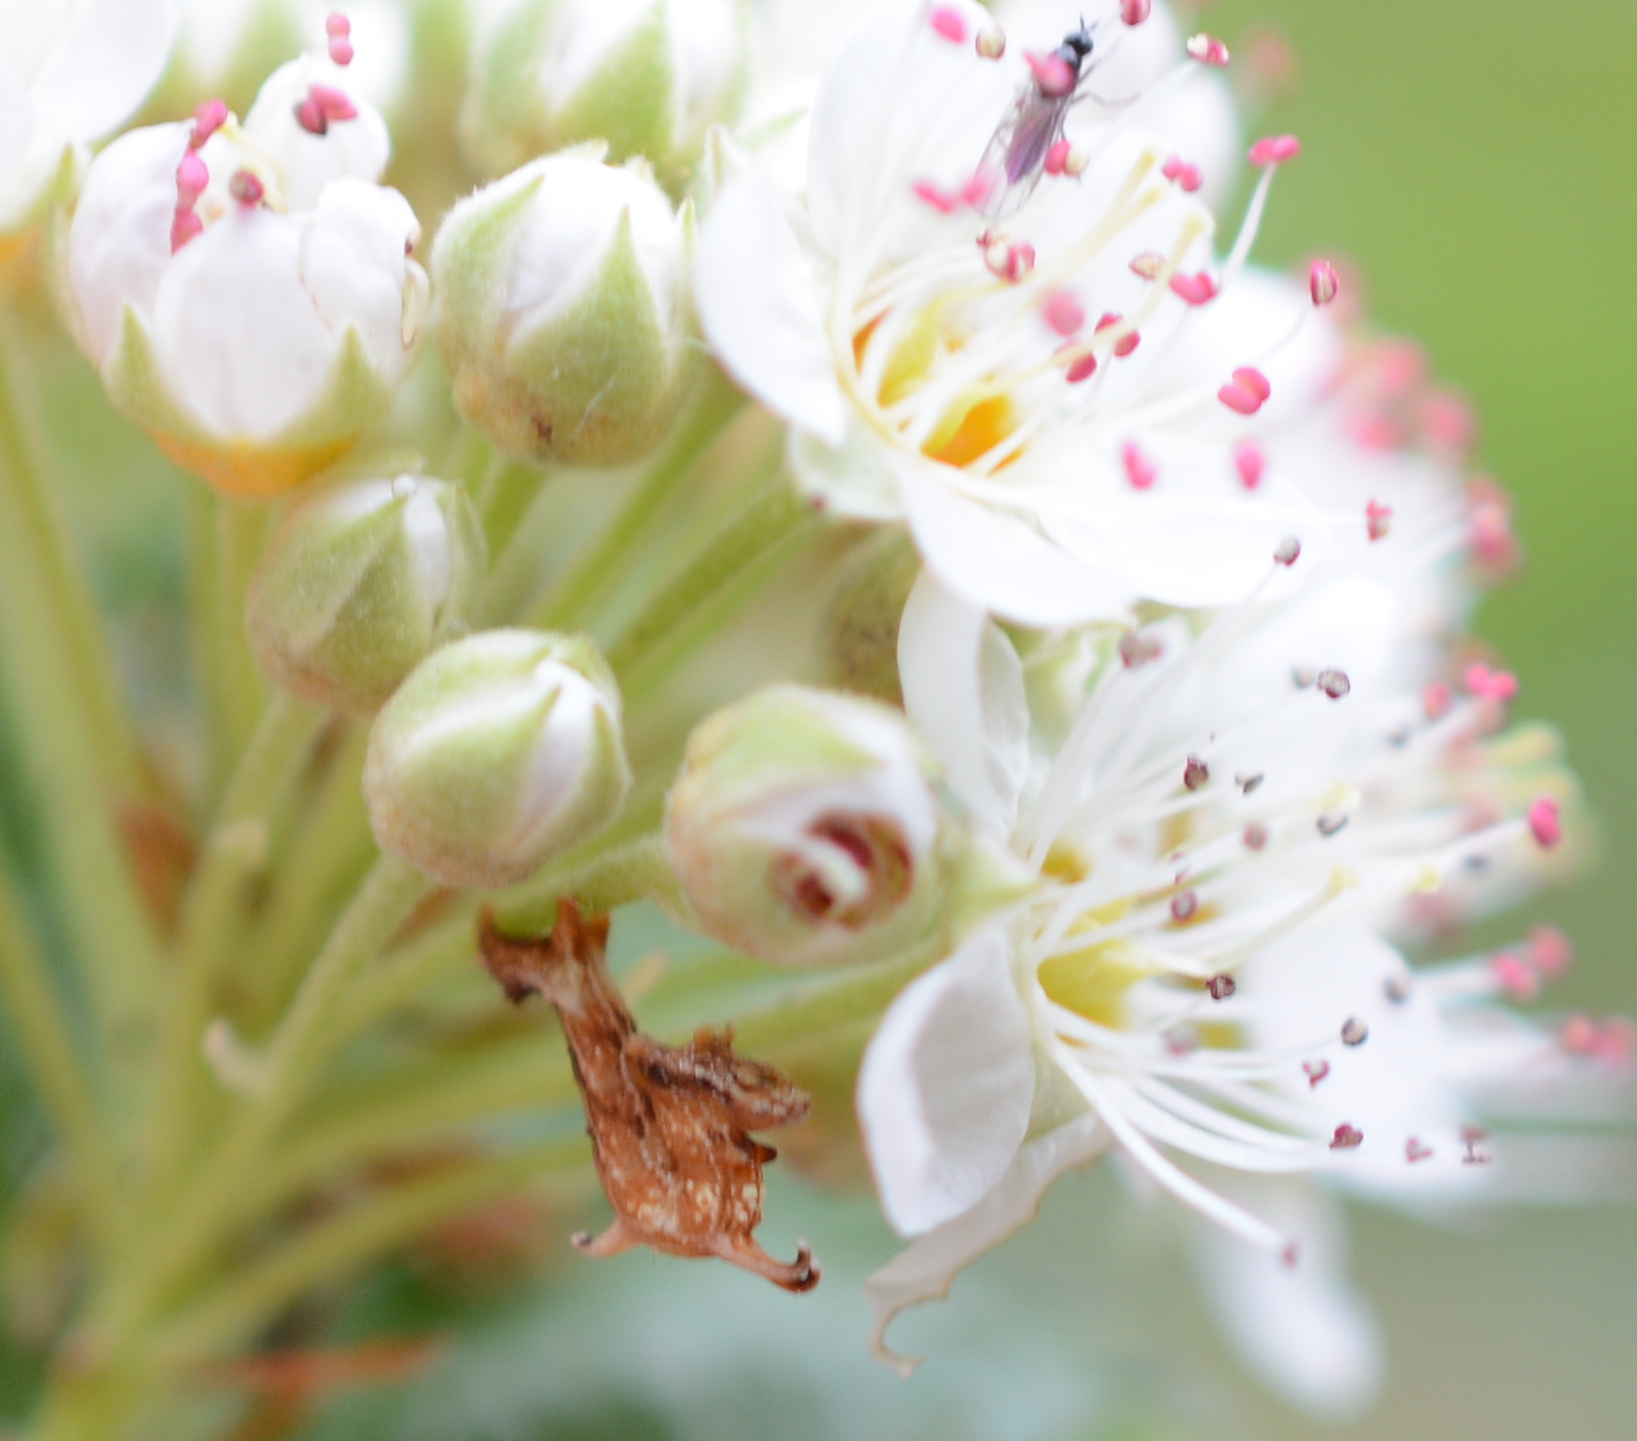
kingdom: Animalia
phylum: Arthropoda
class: Insecta
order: Lepidoptera
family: Geometridae
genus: Nematocampa
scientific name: Nematocampa resistaria
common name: Horned spanworm moth
